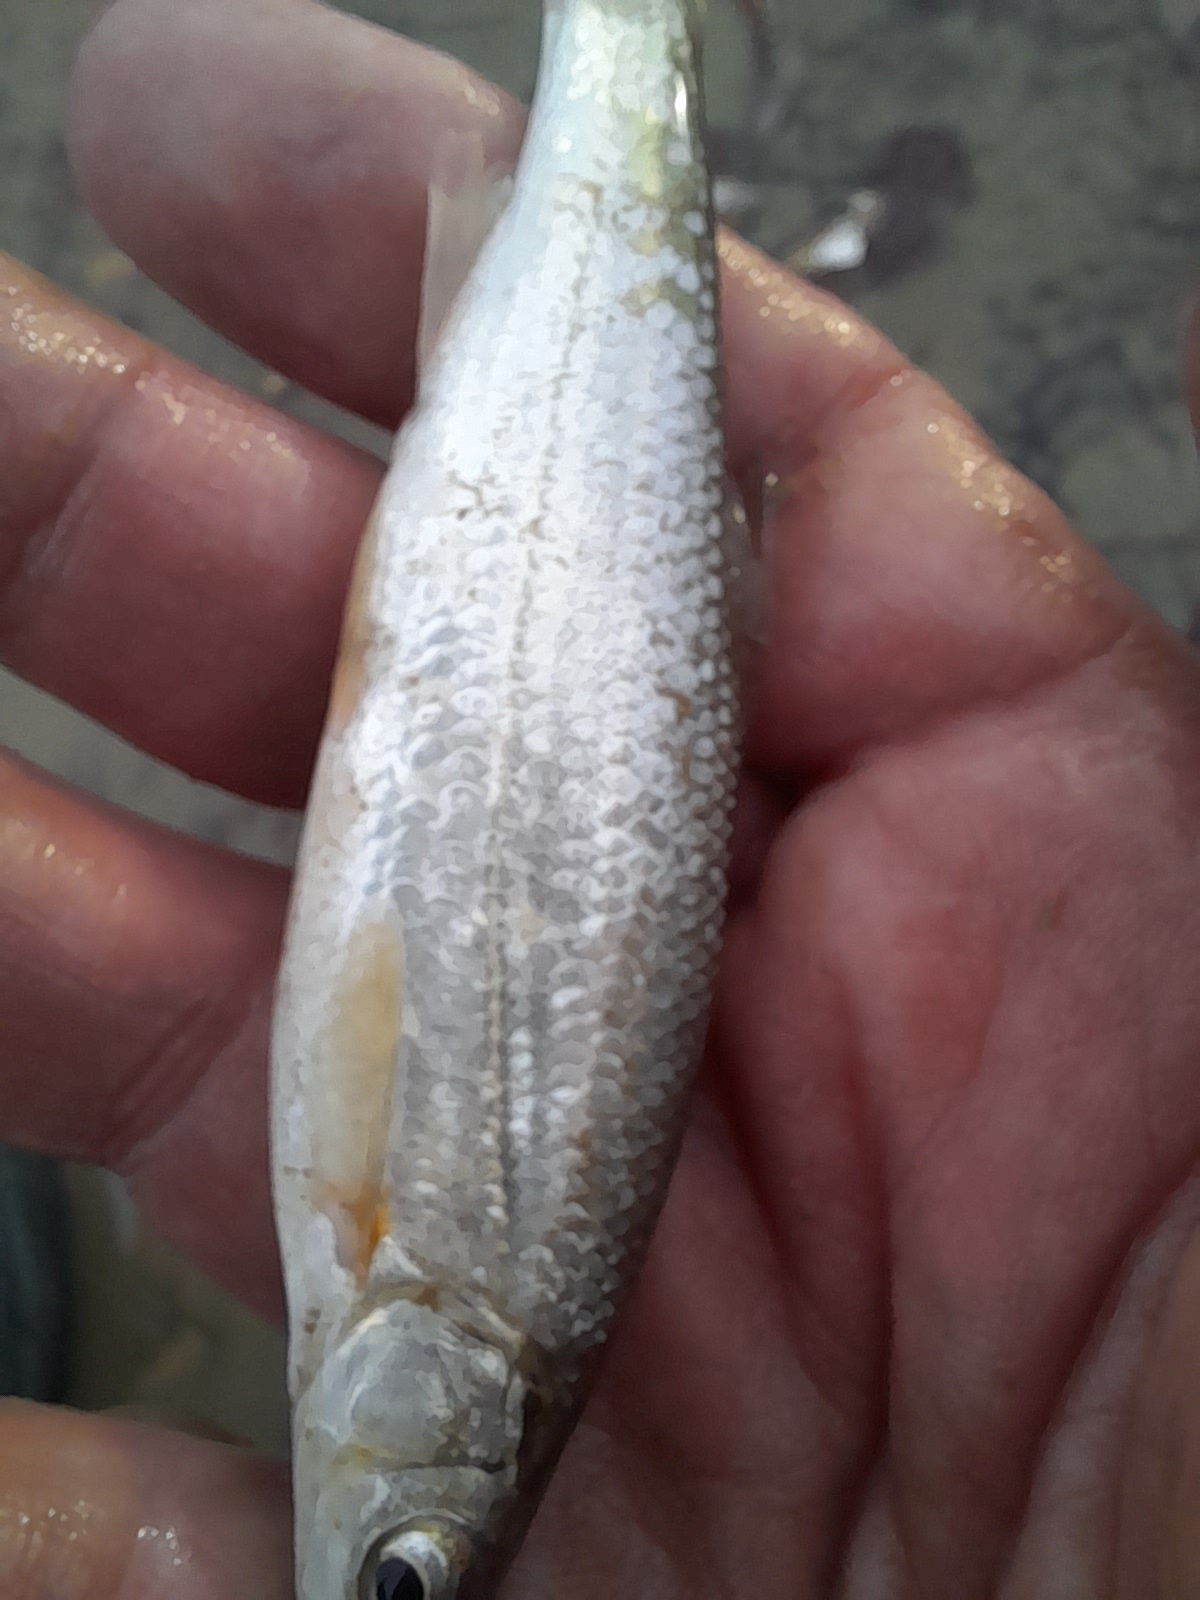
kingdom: Animalia
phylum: Chordata
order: Cypriniformes
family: Cyprinidae
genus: Protochondrostoma
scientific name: Protochondrostoma genei
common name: South european nase
